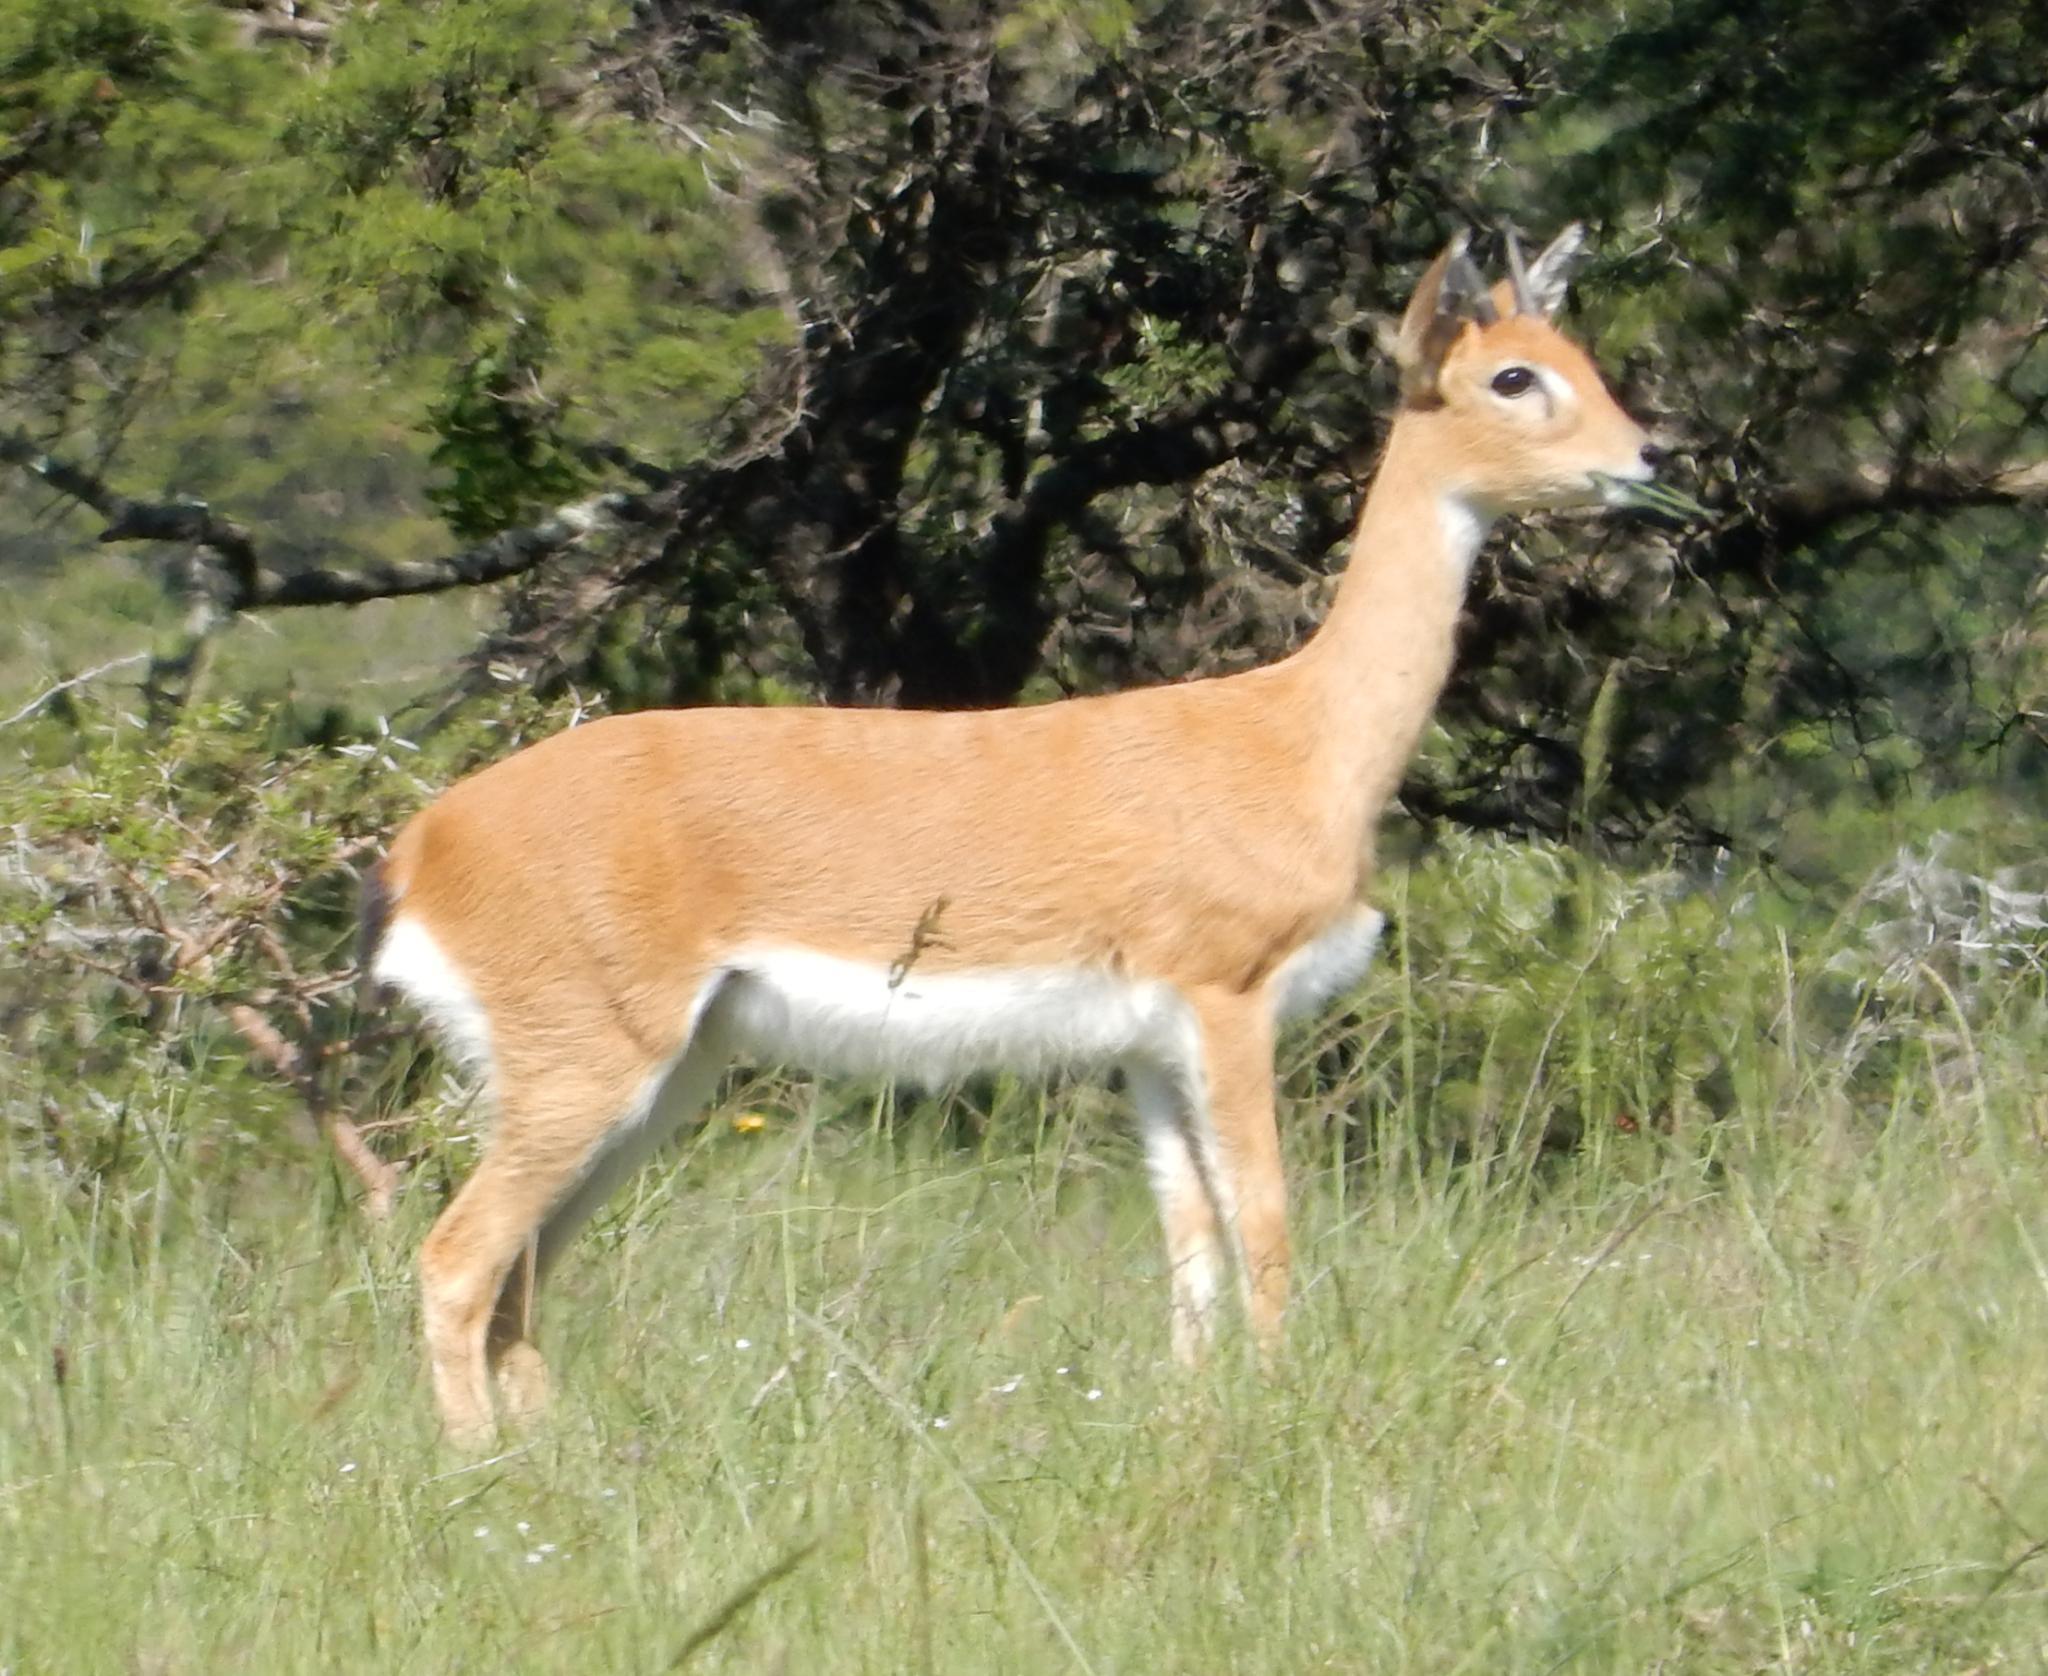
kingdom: Animalia
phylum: Chordata
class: Mammalia
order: Artiodactyla
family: Bovidae
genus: Ourebia
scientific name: Ourebia ourebi
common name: Oribi
